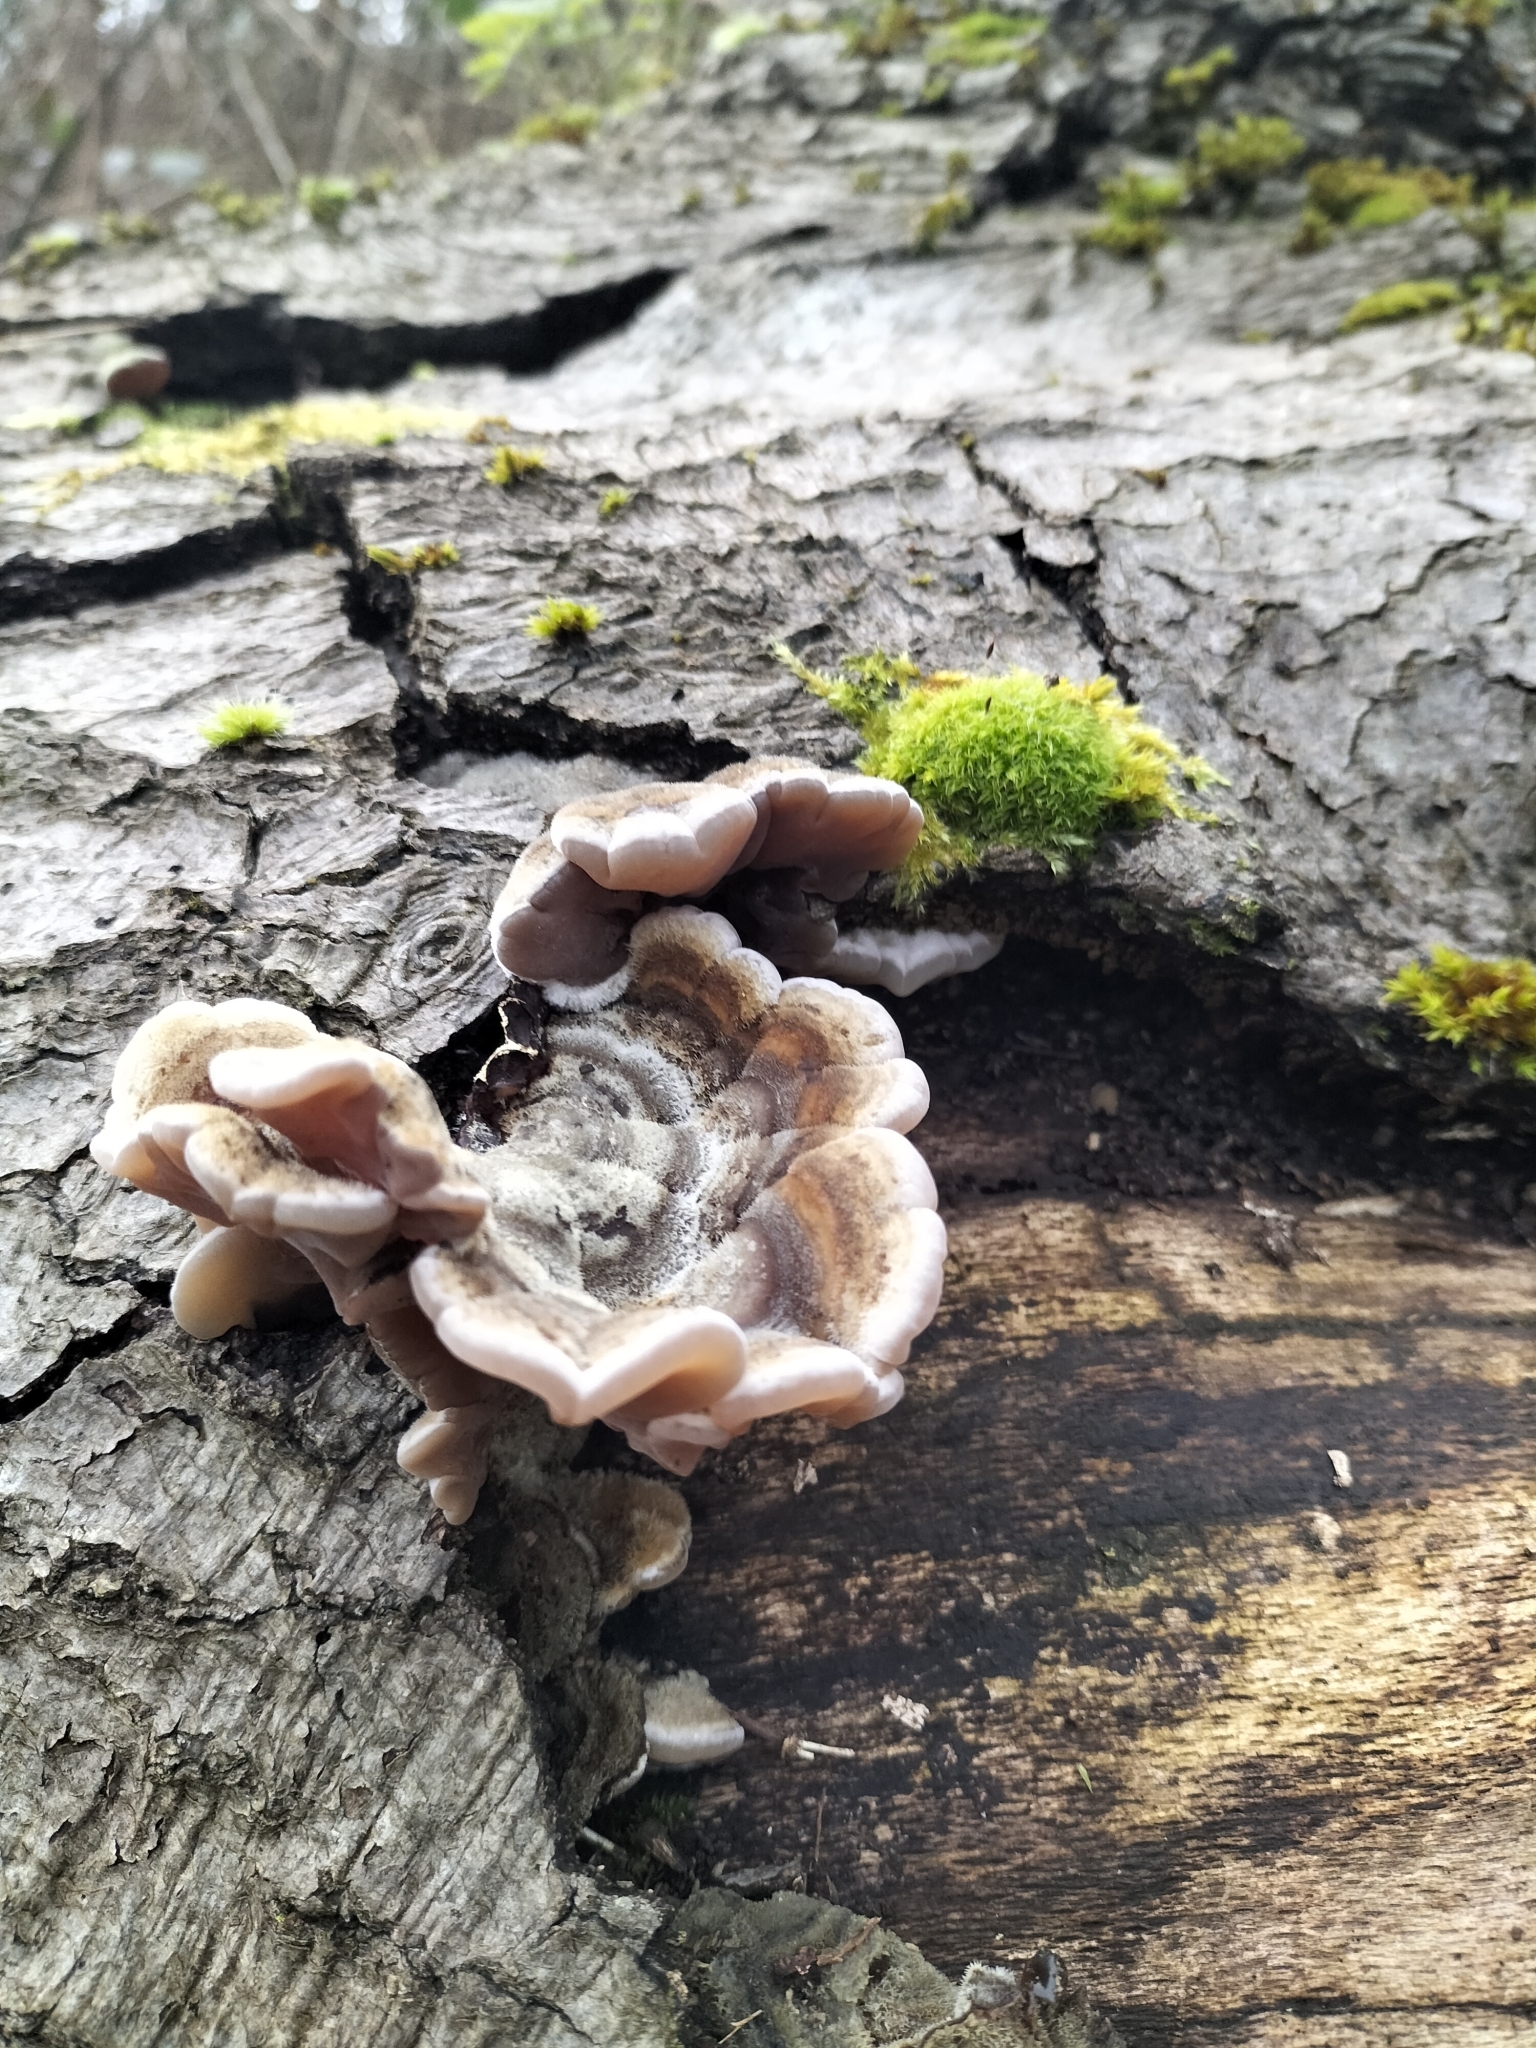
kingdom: Fungi
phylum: Basidiomycota
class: Agaricomycetes
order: Auriculariales
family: Auriculariaceae
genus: Auricularia
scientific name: Auricularia mesenterica
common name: Tripe fungus
